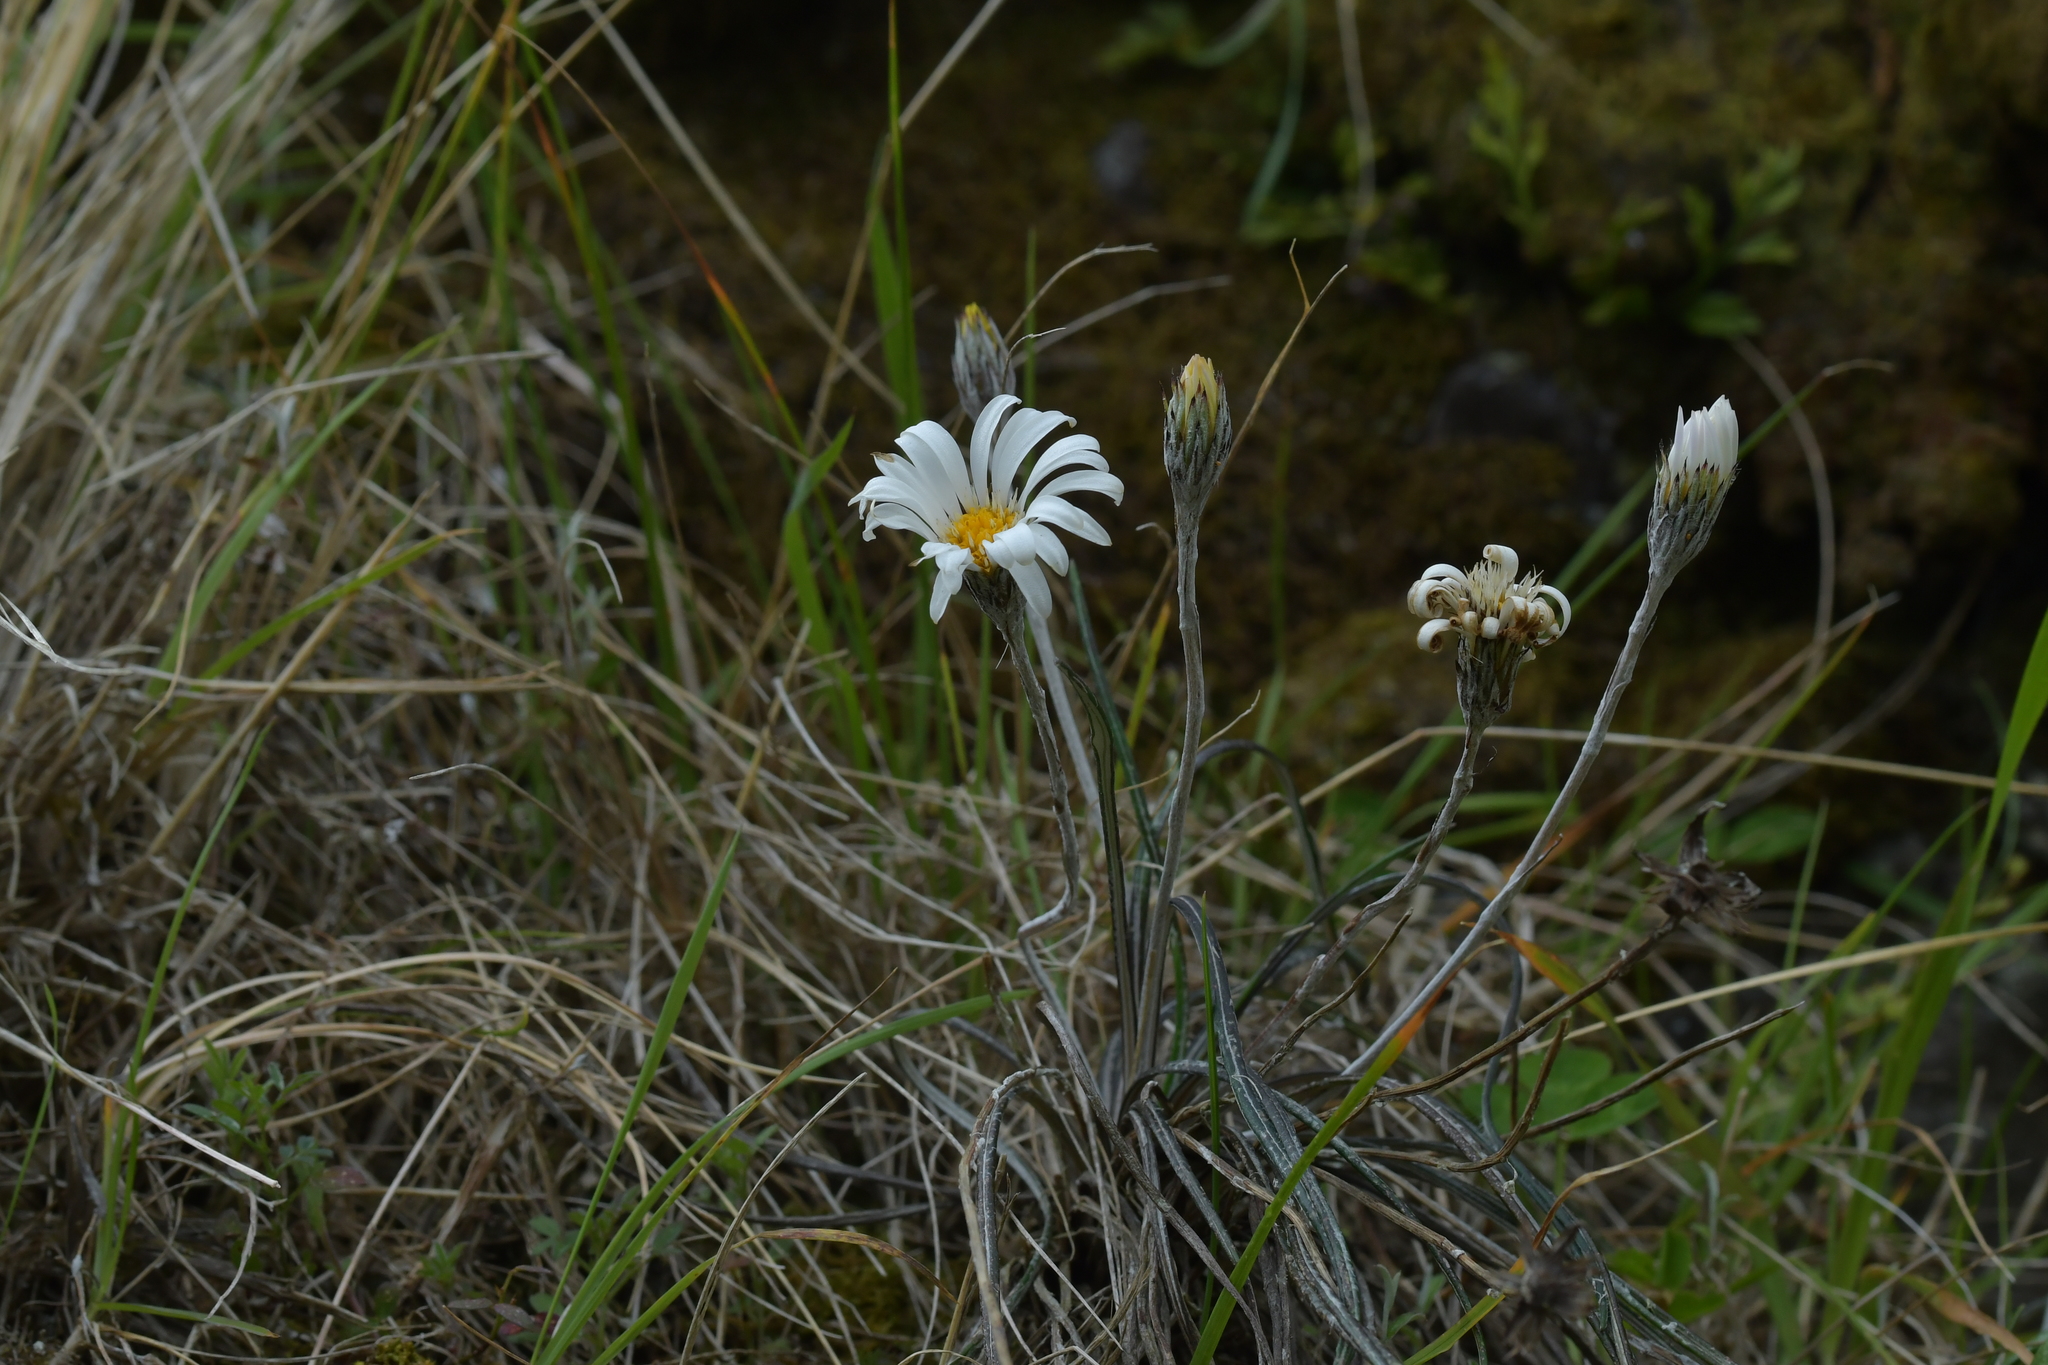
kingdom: Plantae
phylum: Tracheophyta
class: Magnoliopsida
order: Asterales
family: Asteraceae
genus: Celmisia
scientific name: Celmisia gracilenta
